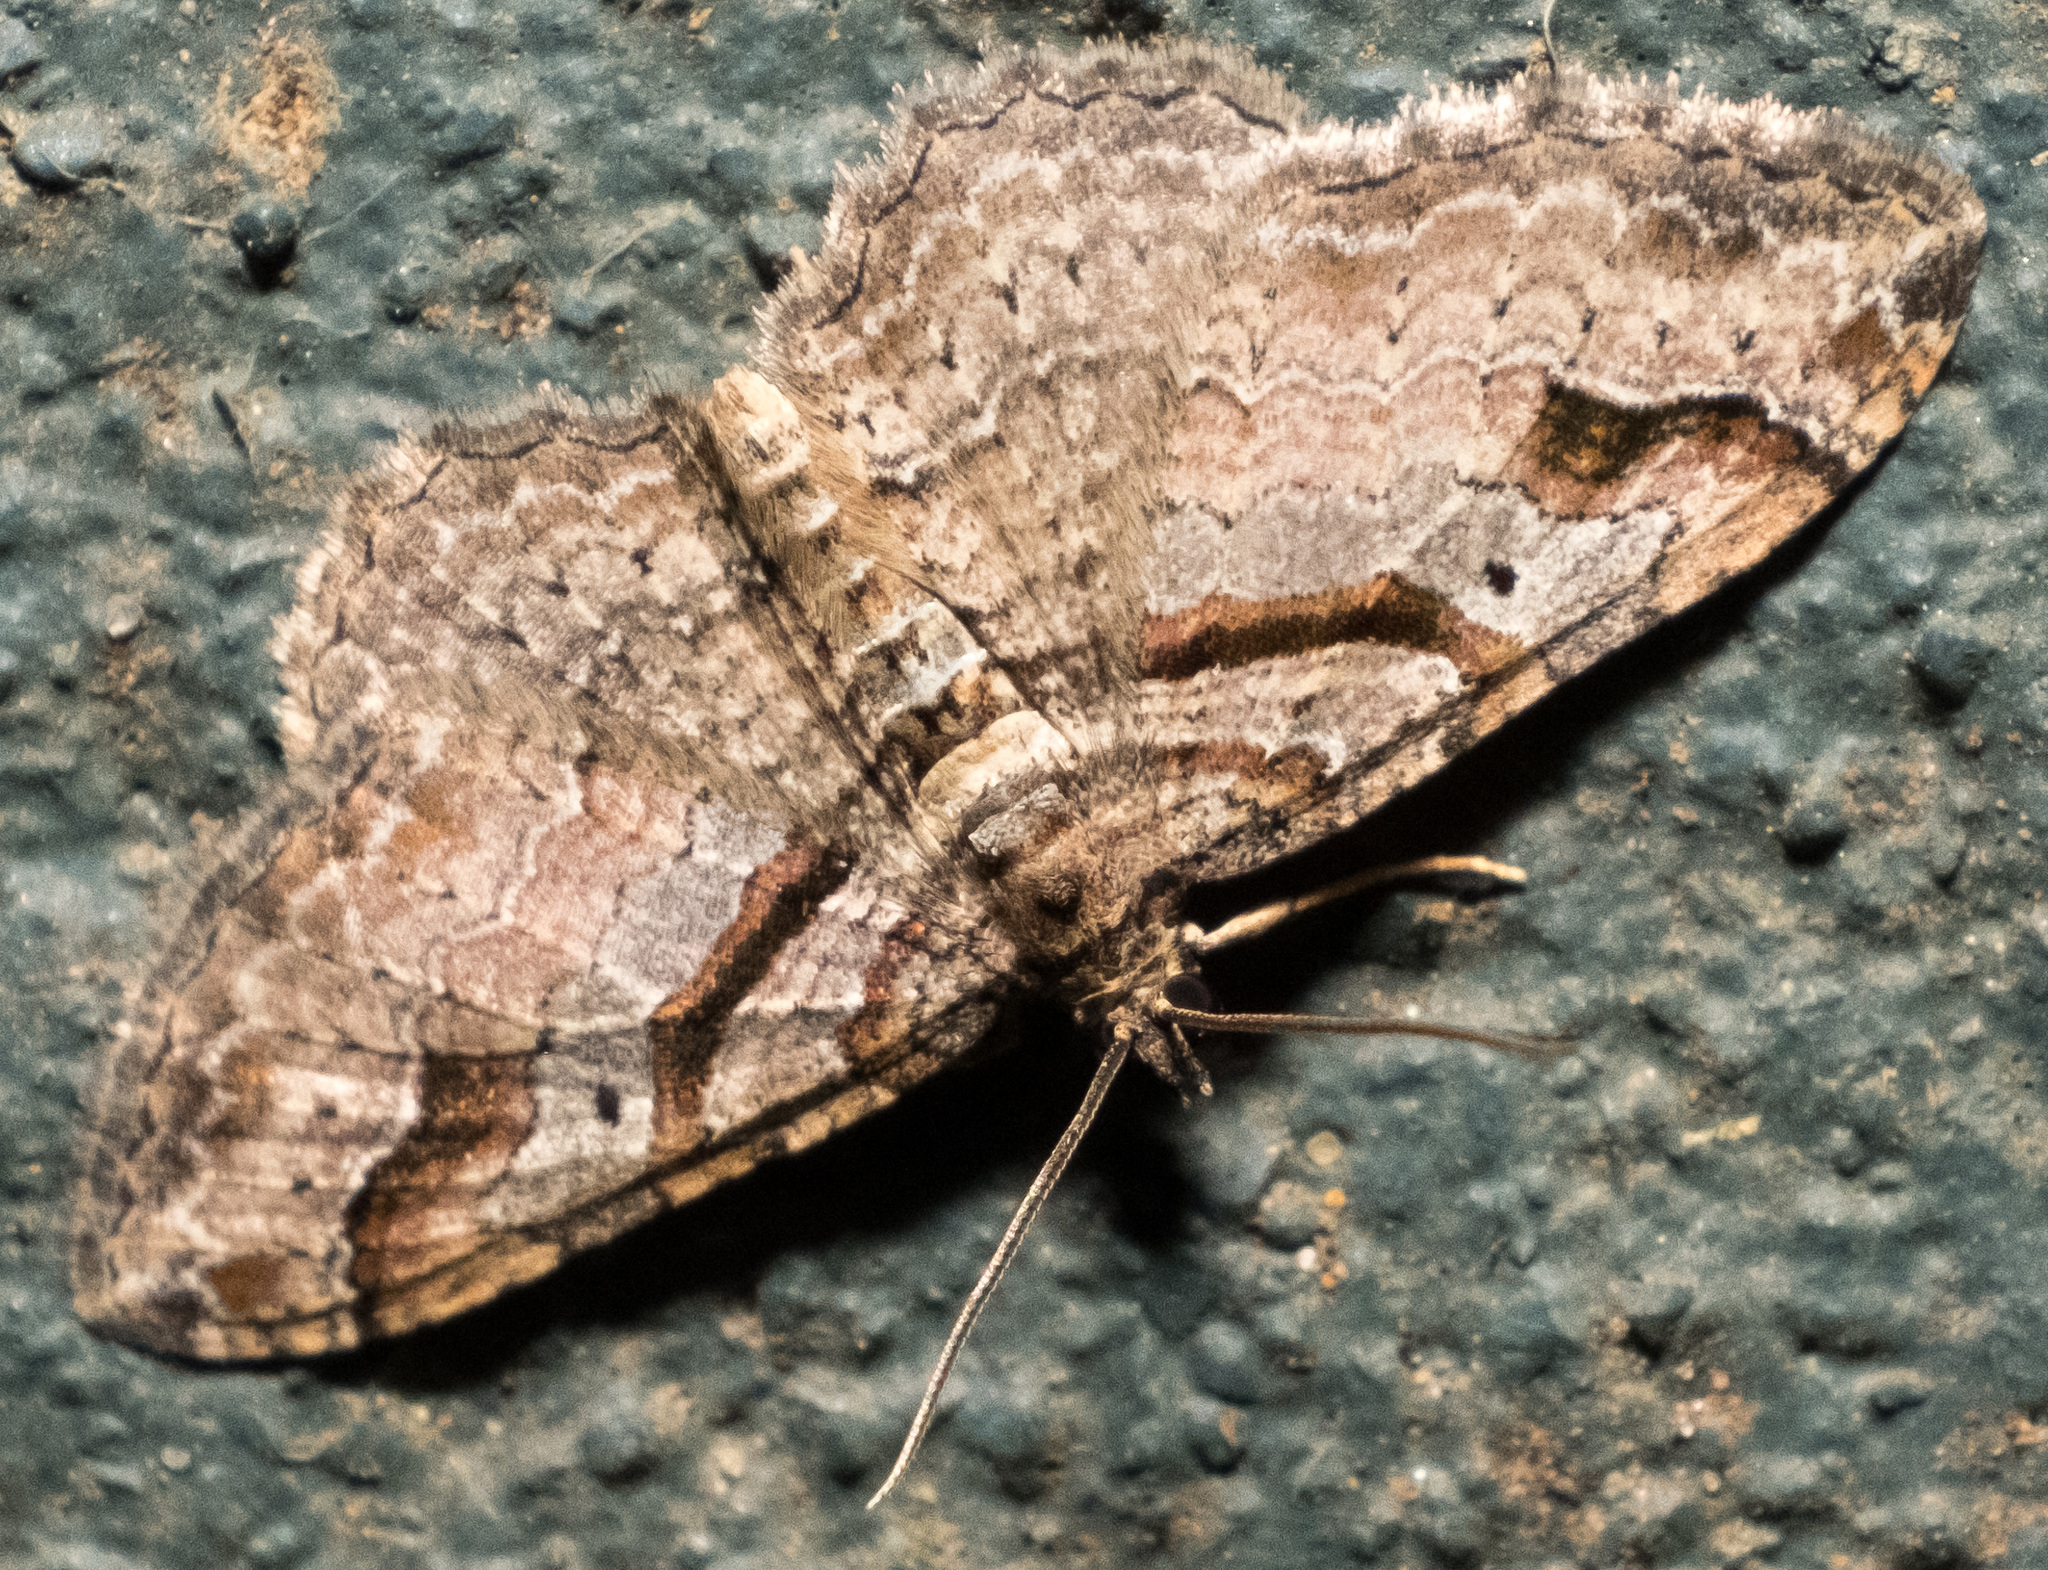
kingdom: Animalia
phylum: Arthropoda
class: Insecta
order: Lepidoptera
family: Geometridae
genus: Costaconvexa
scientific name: Costaconvexa centrostrigaria
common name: Bent-line carpet
